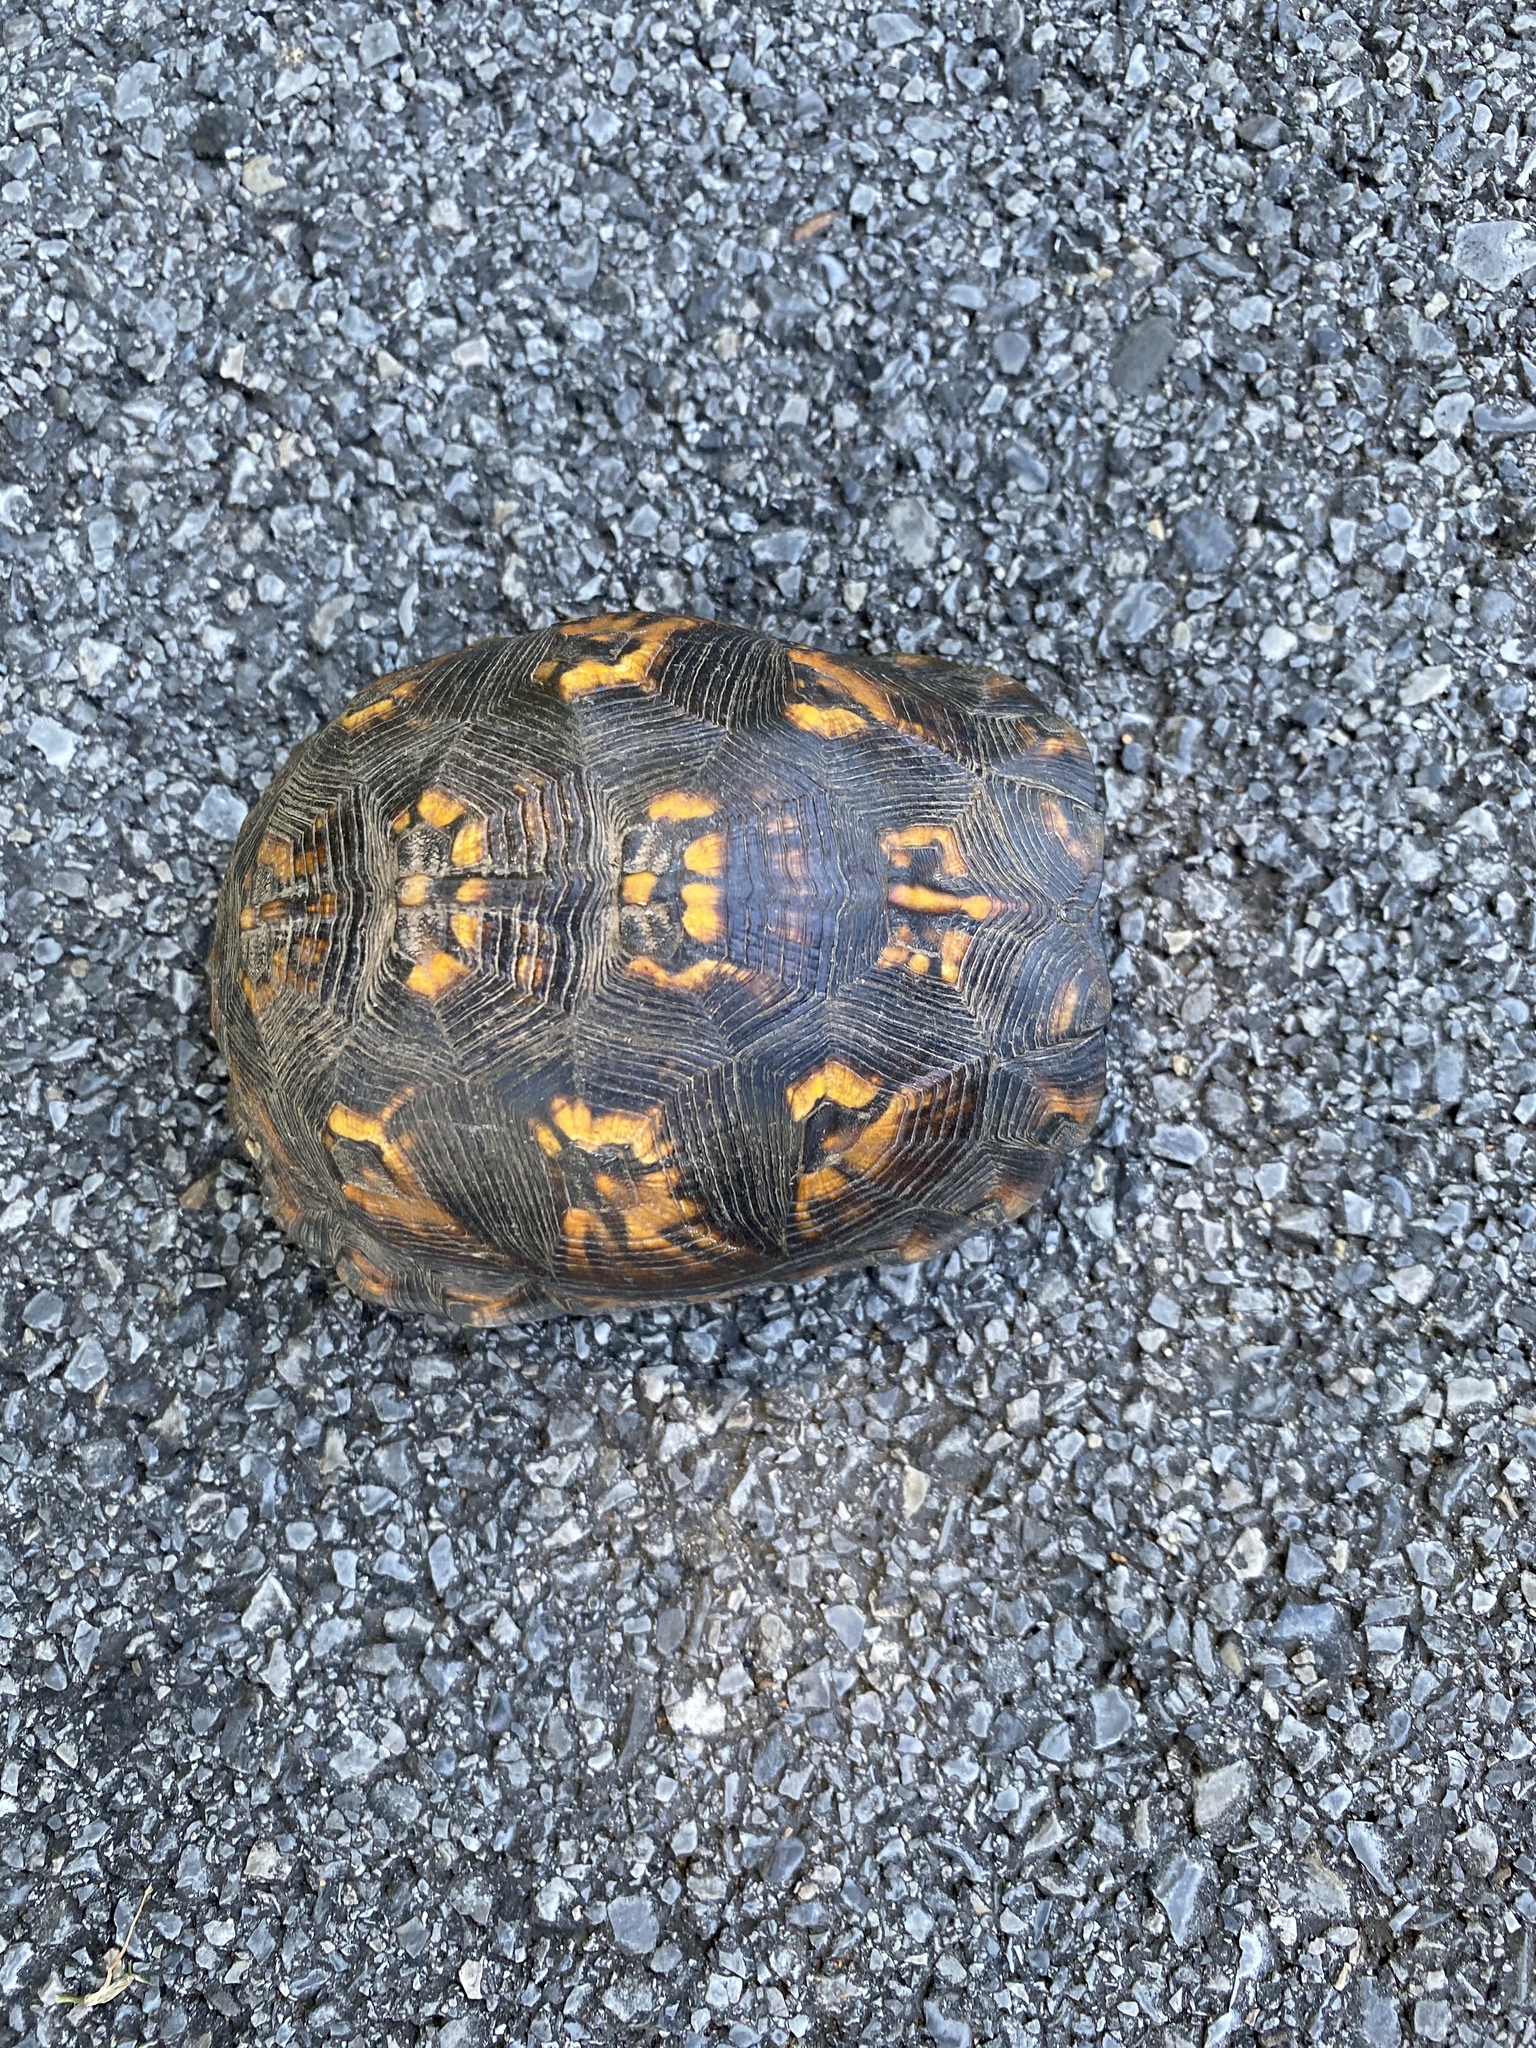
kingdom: Animalia
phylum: Chordata
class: Testudines
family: Emydidae
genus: Terrapene
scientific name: Terrapene carolina
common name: Common box turtle
